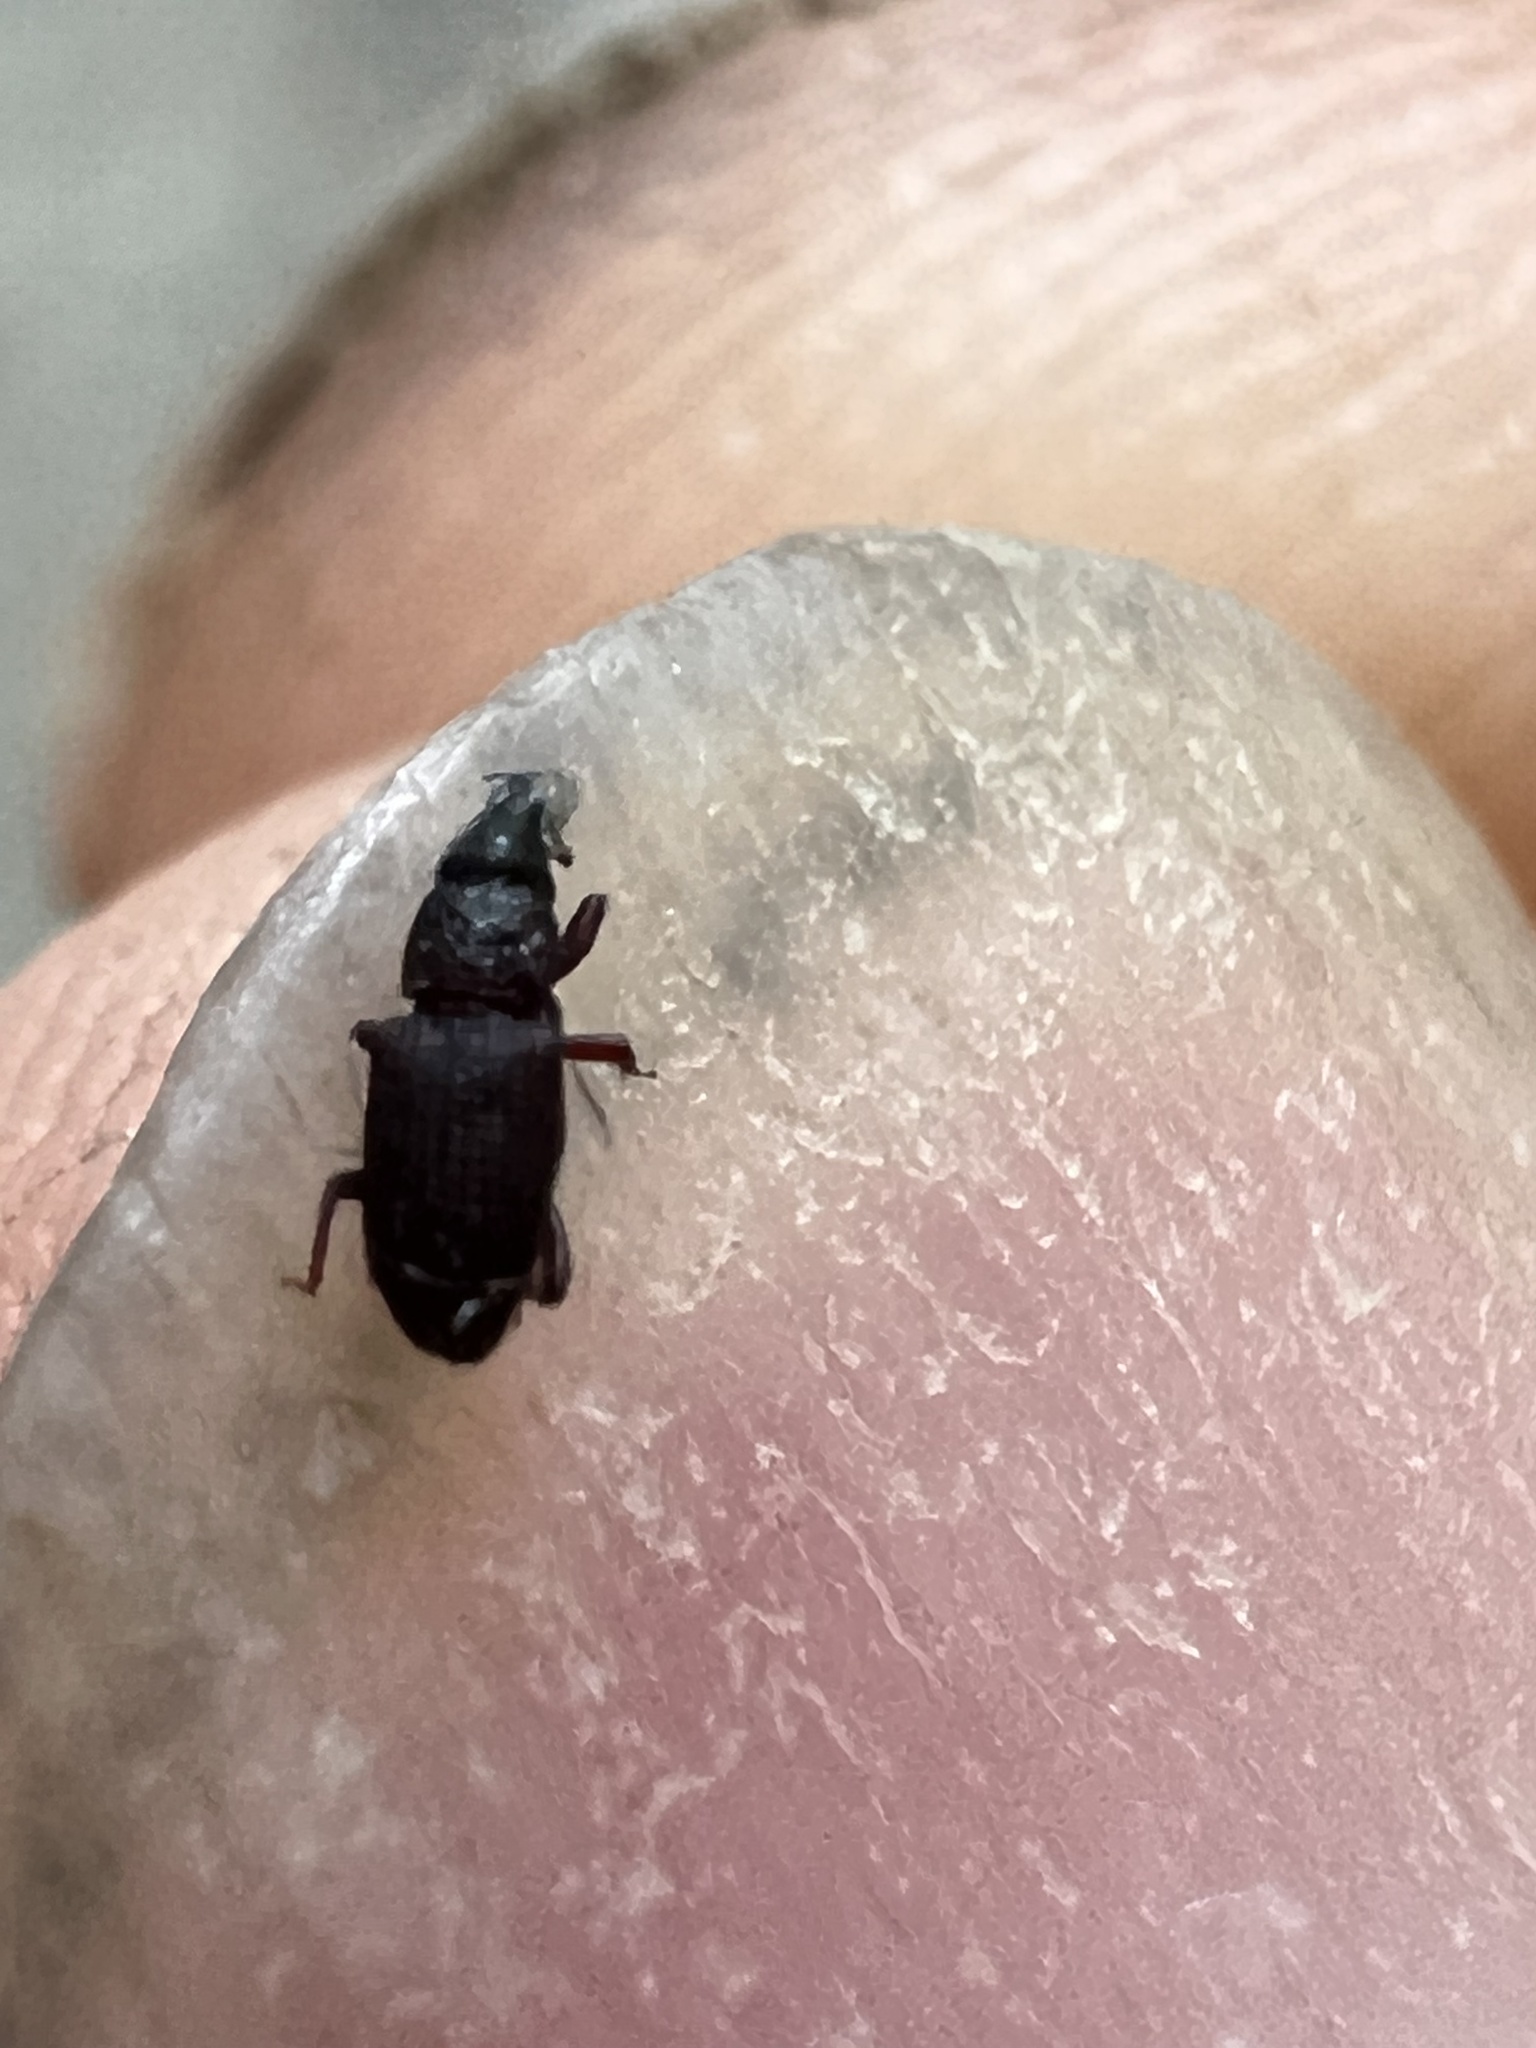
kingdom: Animalia
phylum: Arthropoda
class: Insecta
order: Coleoptera
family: Dryophthoridae
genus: Dryophthorus
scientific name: Dryophthorus americanus
